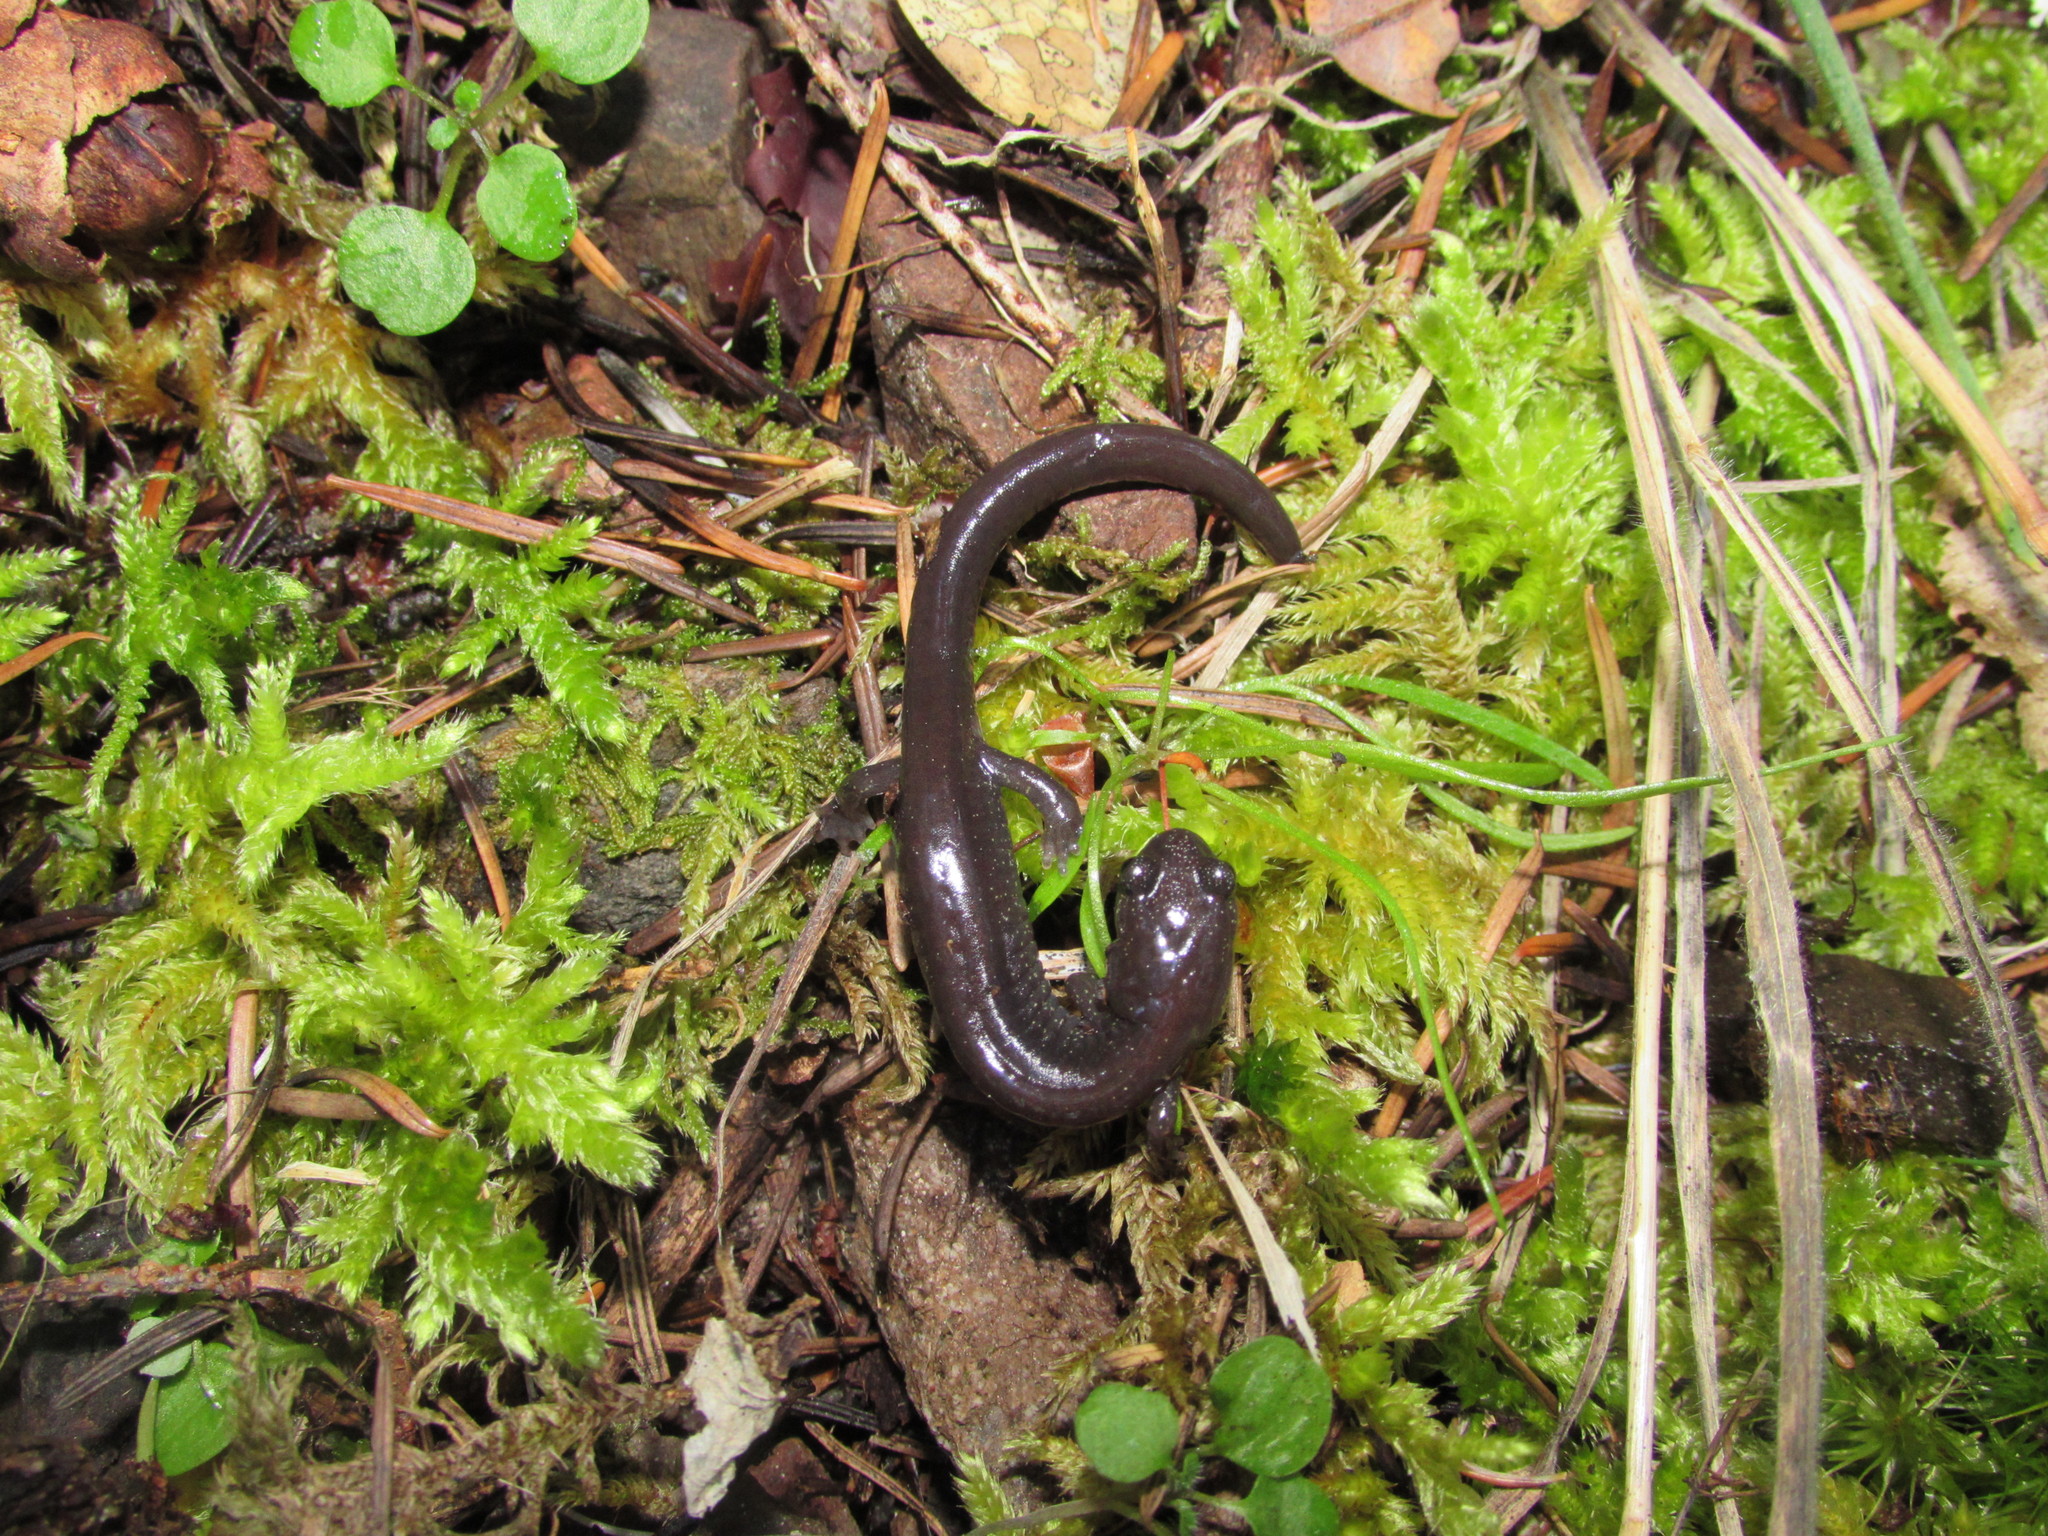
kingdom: Animalia
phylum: Chordata
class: Amphibia
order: Caudata
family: Plethodontidae
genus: Plethodon
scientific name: Plethodon stormi
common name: Siskiyou mountains salamander
